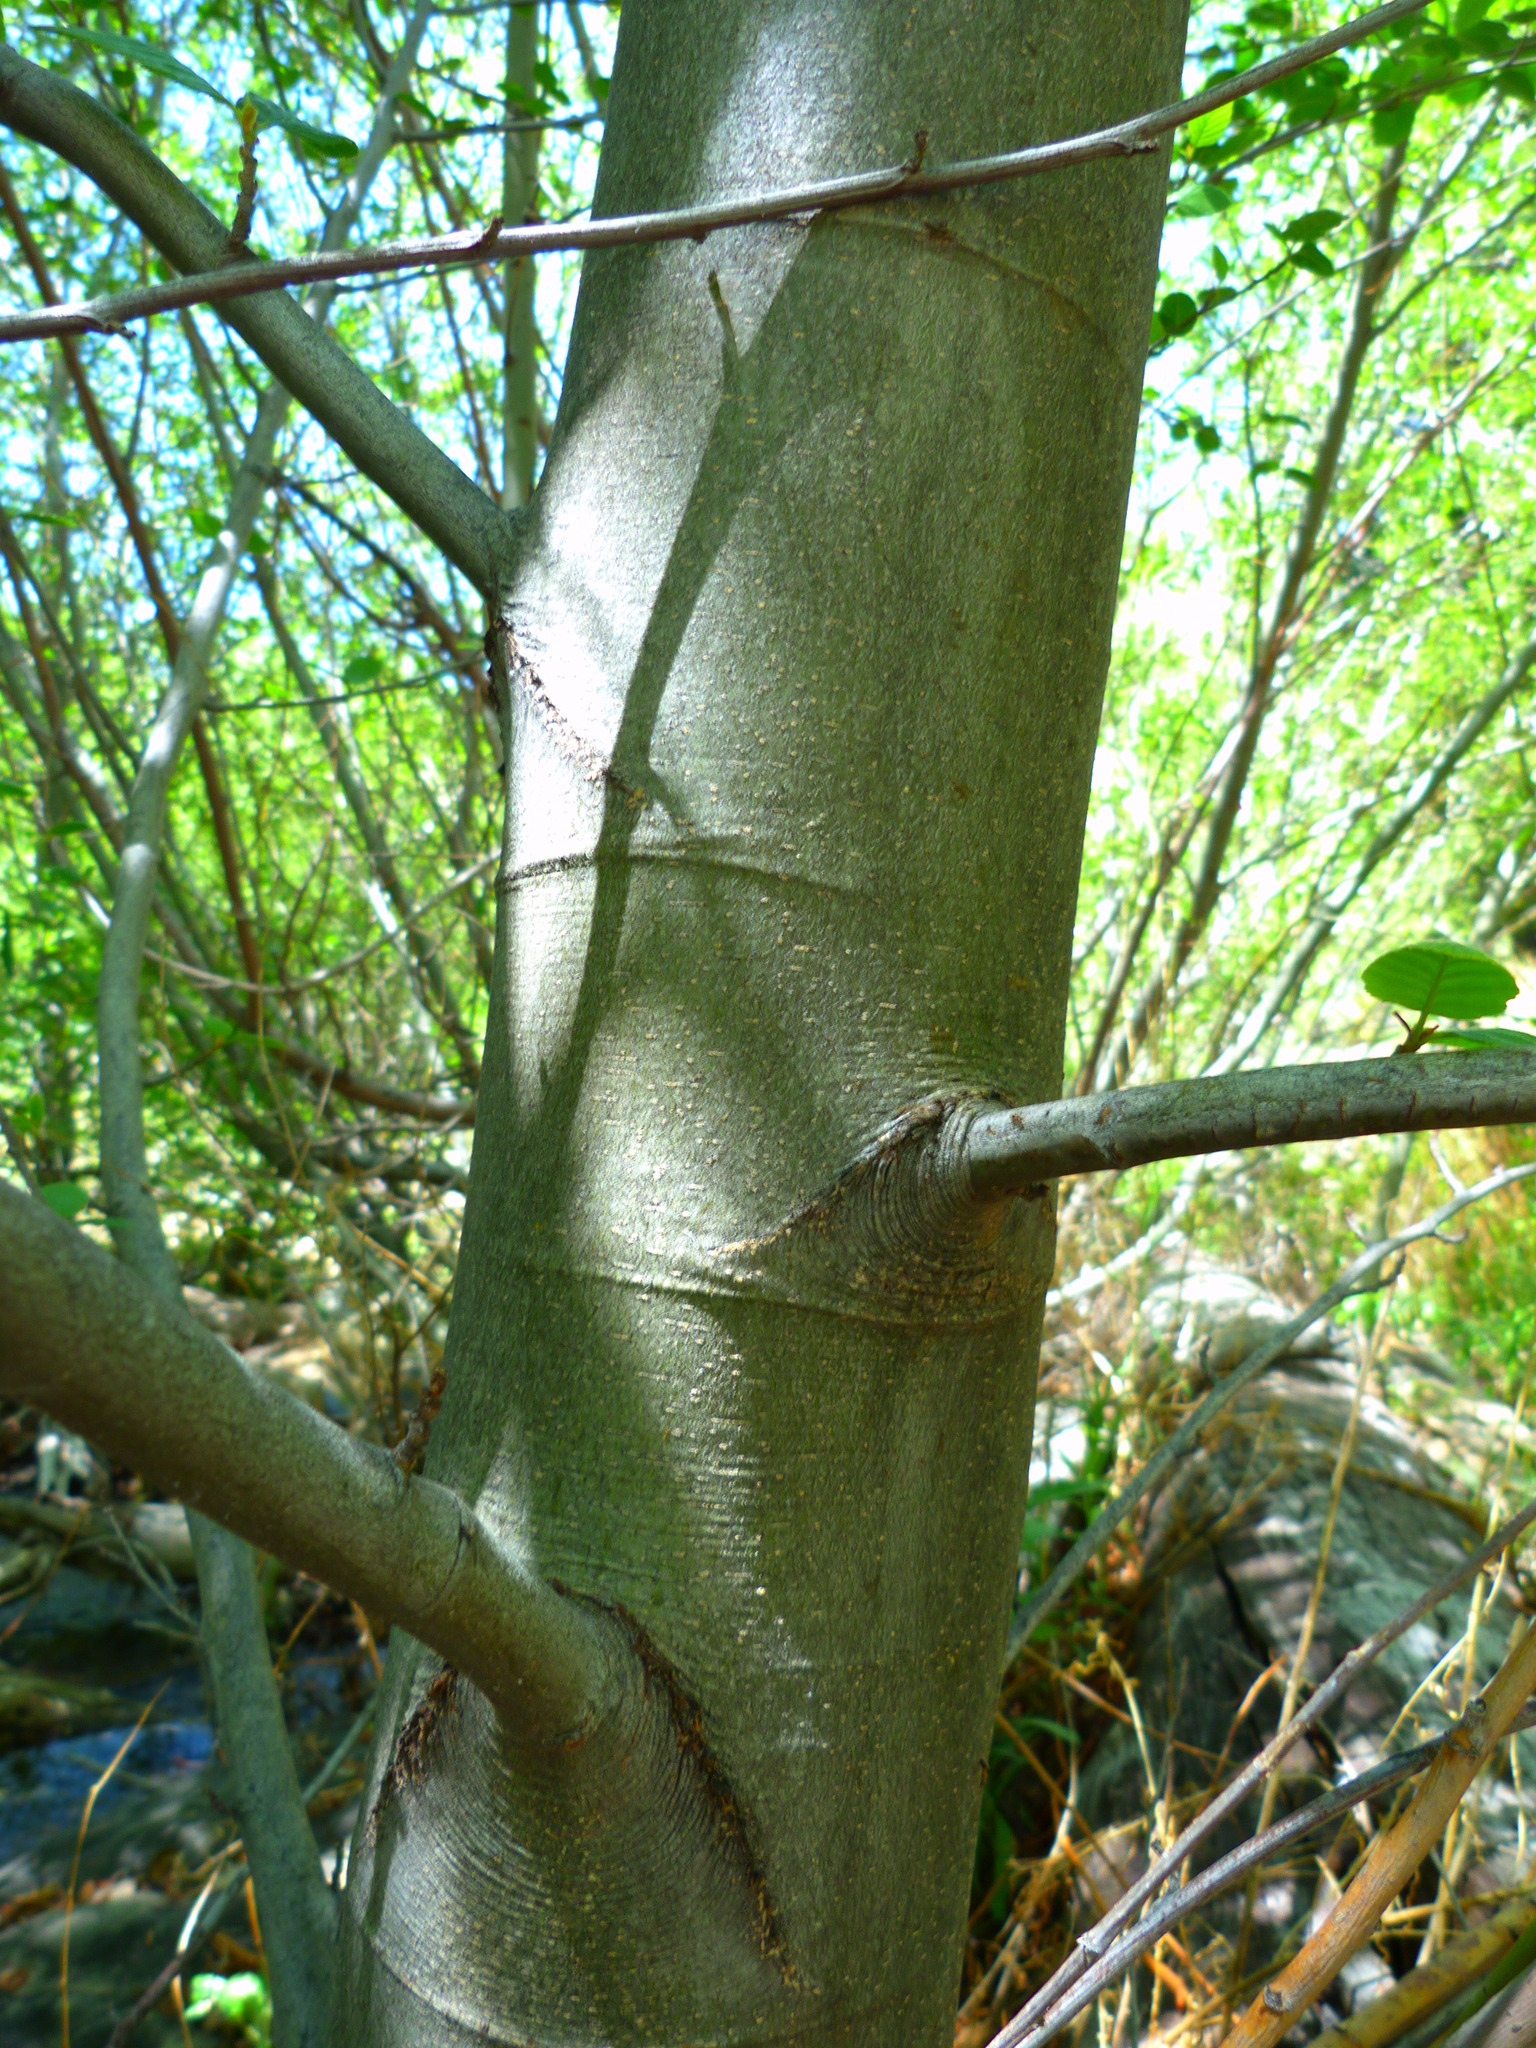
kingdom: Plantae
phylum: Tracheophyta
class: Magnoliopsida
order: Fagales
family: Betulaceae
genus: Alnus
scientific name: Alnus rhombifolia
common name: California alder
